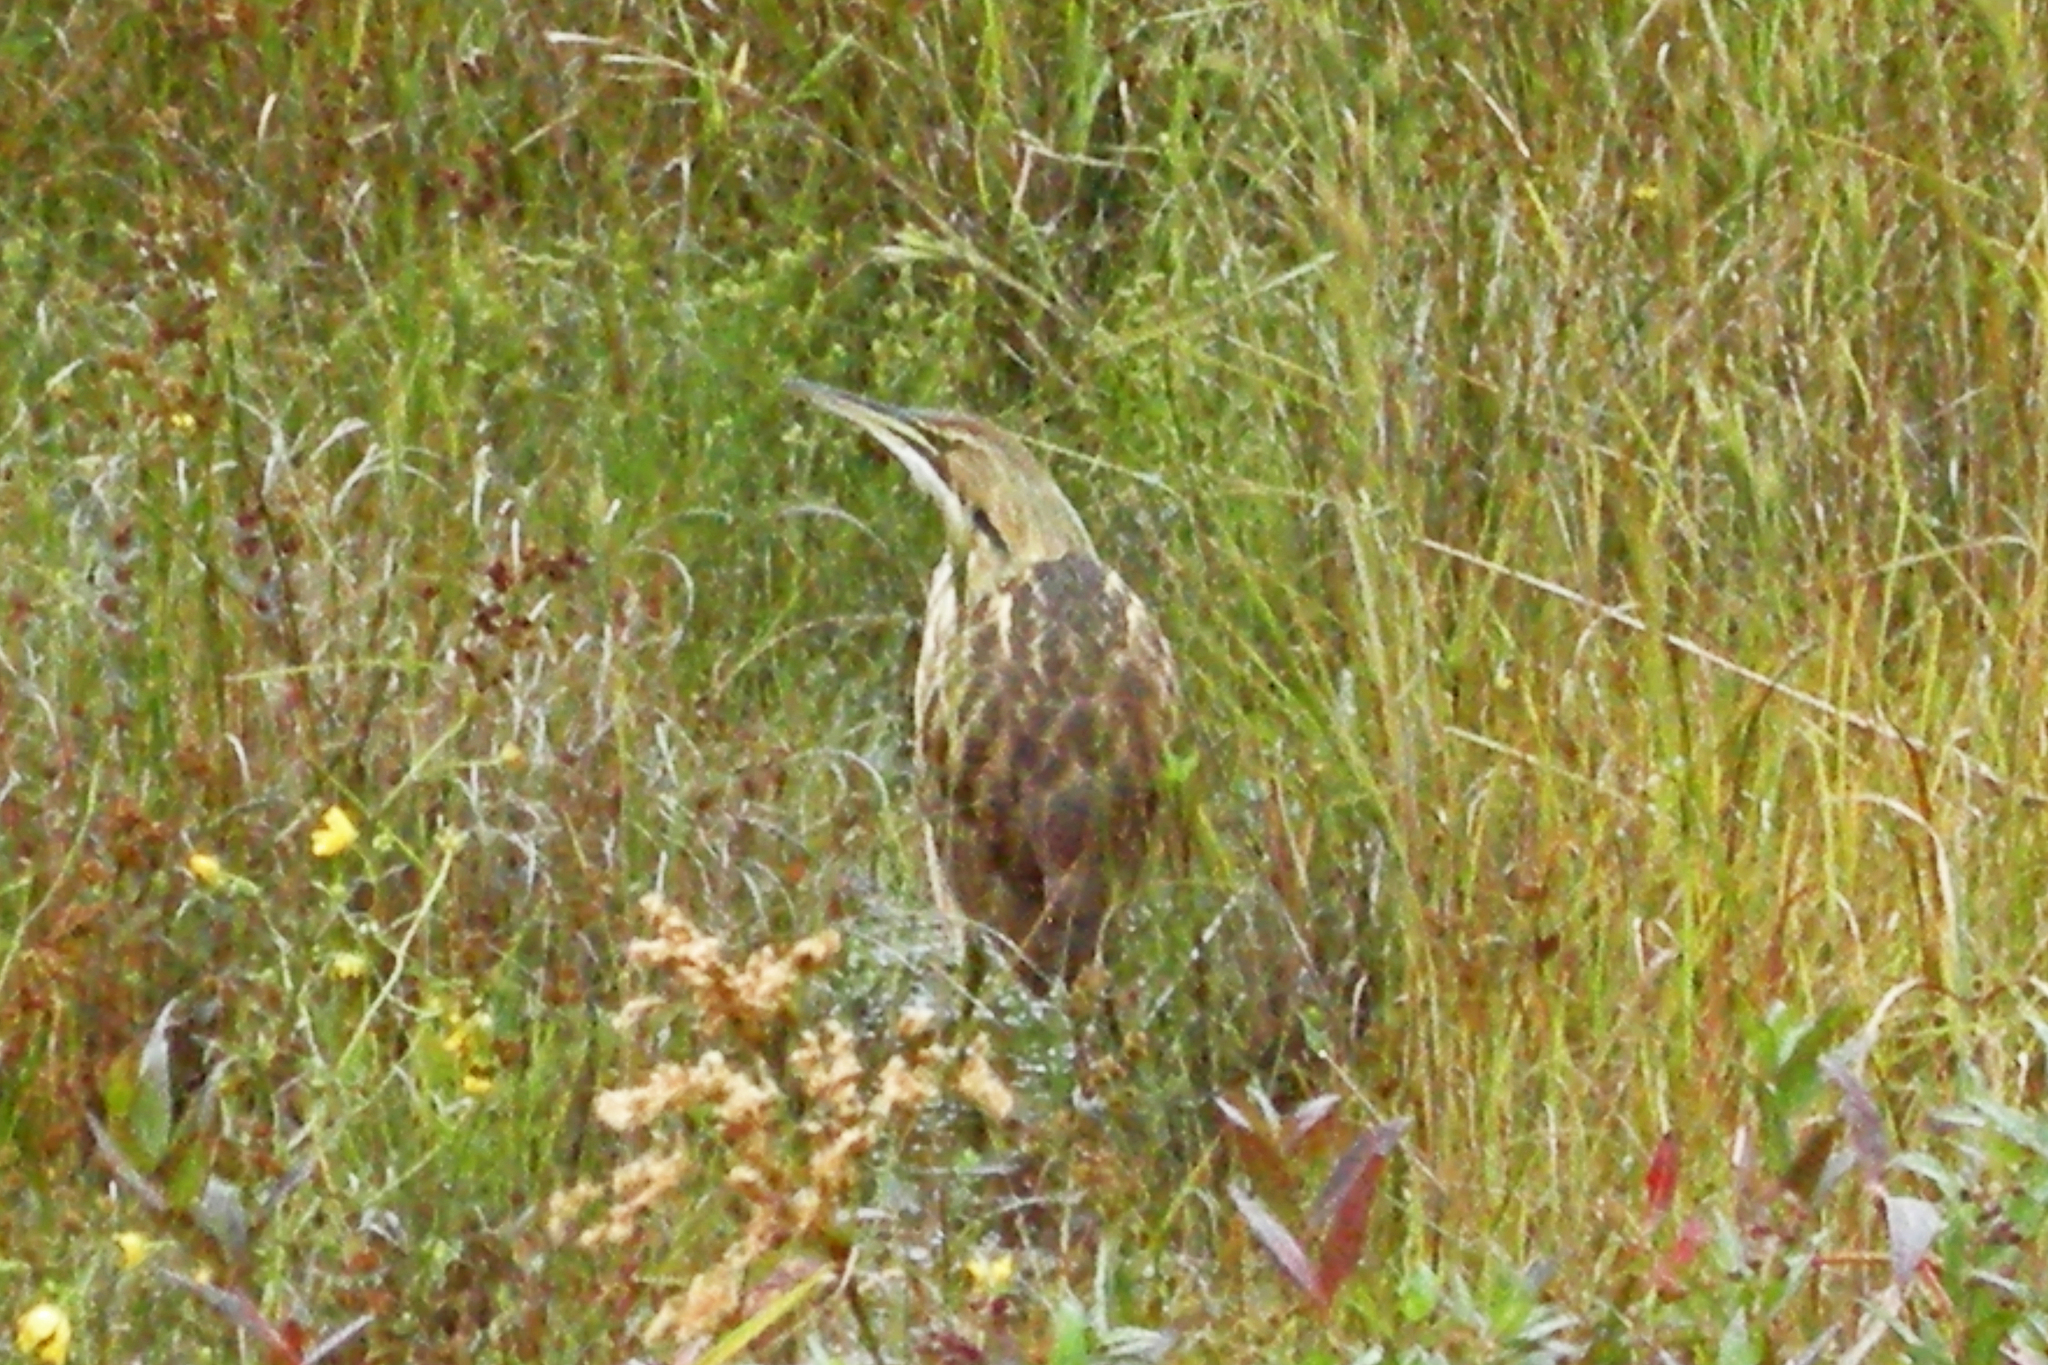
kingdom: Animalia
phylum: Chordata
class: Aves
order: Pelecaniformes
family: Ardeidae
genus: Botaurus
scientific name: Botaurus lentiginosus
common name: American bittern
